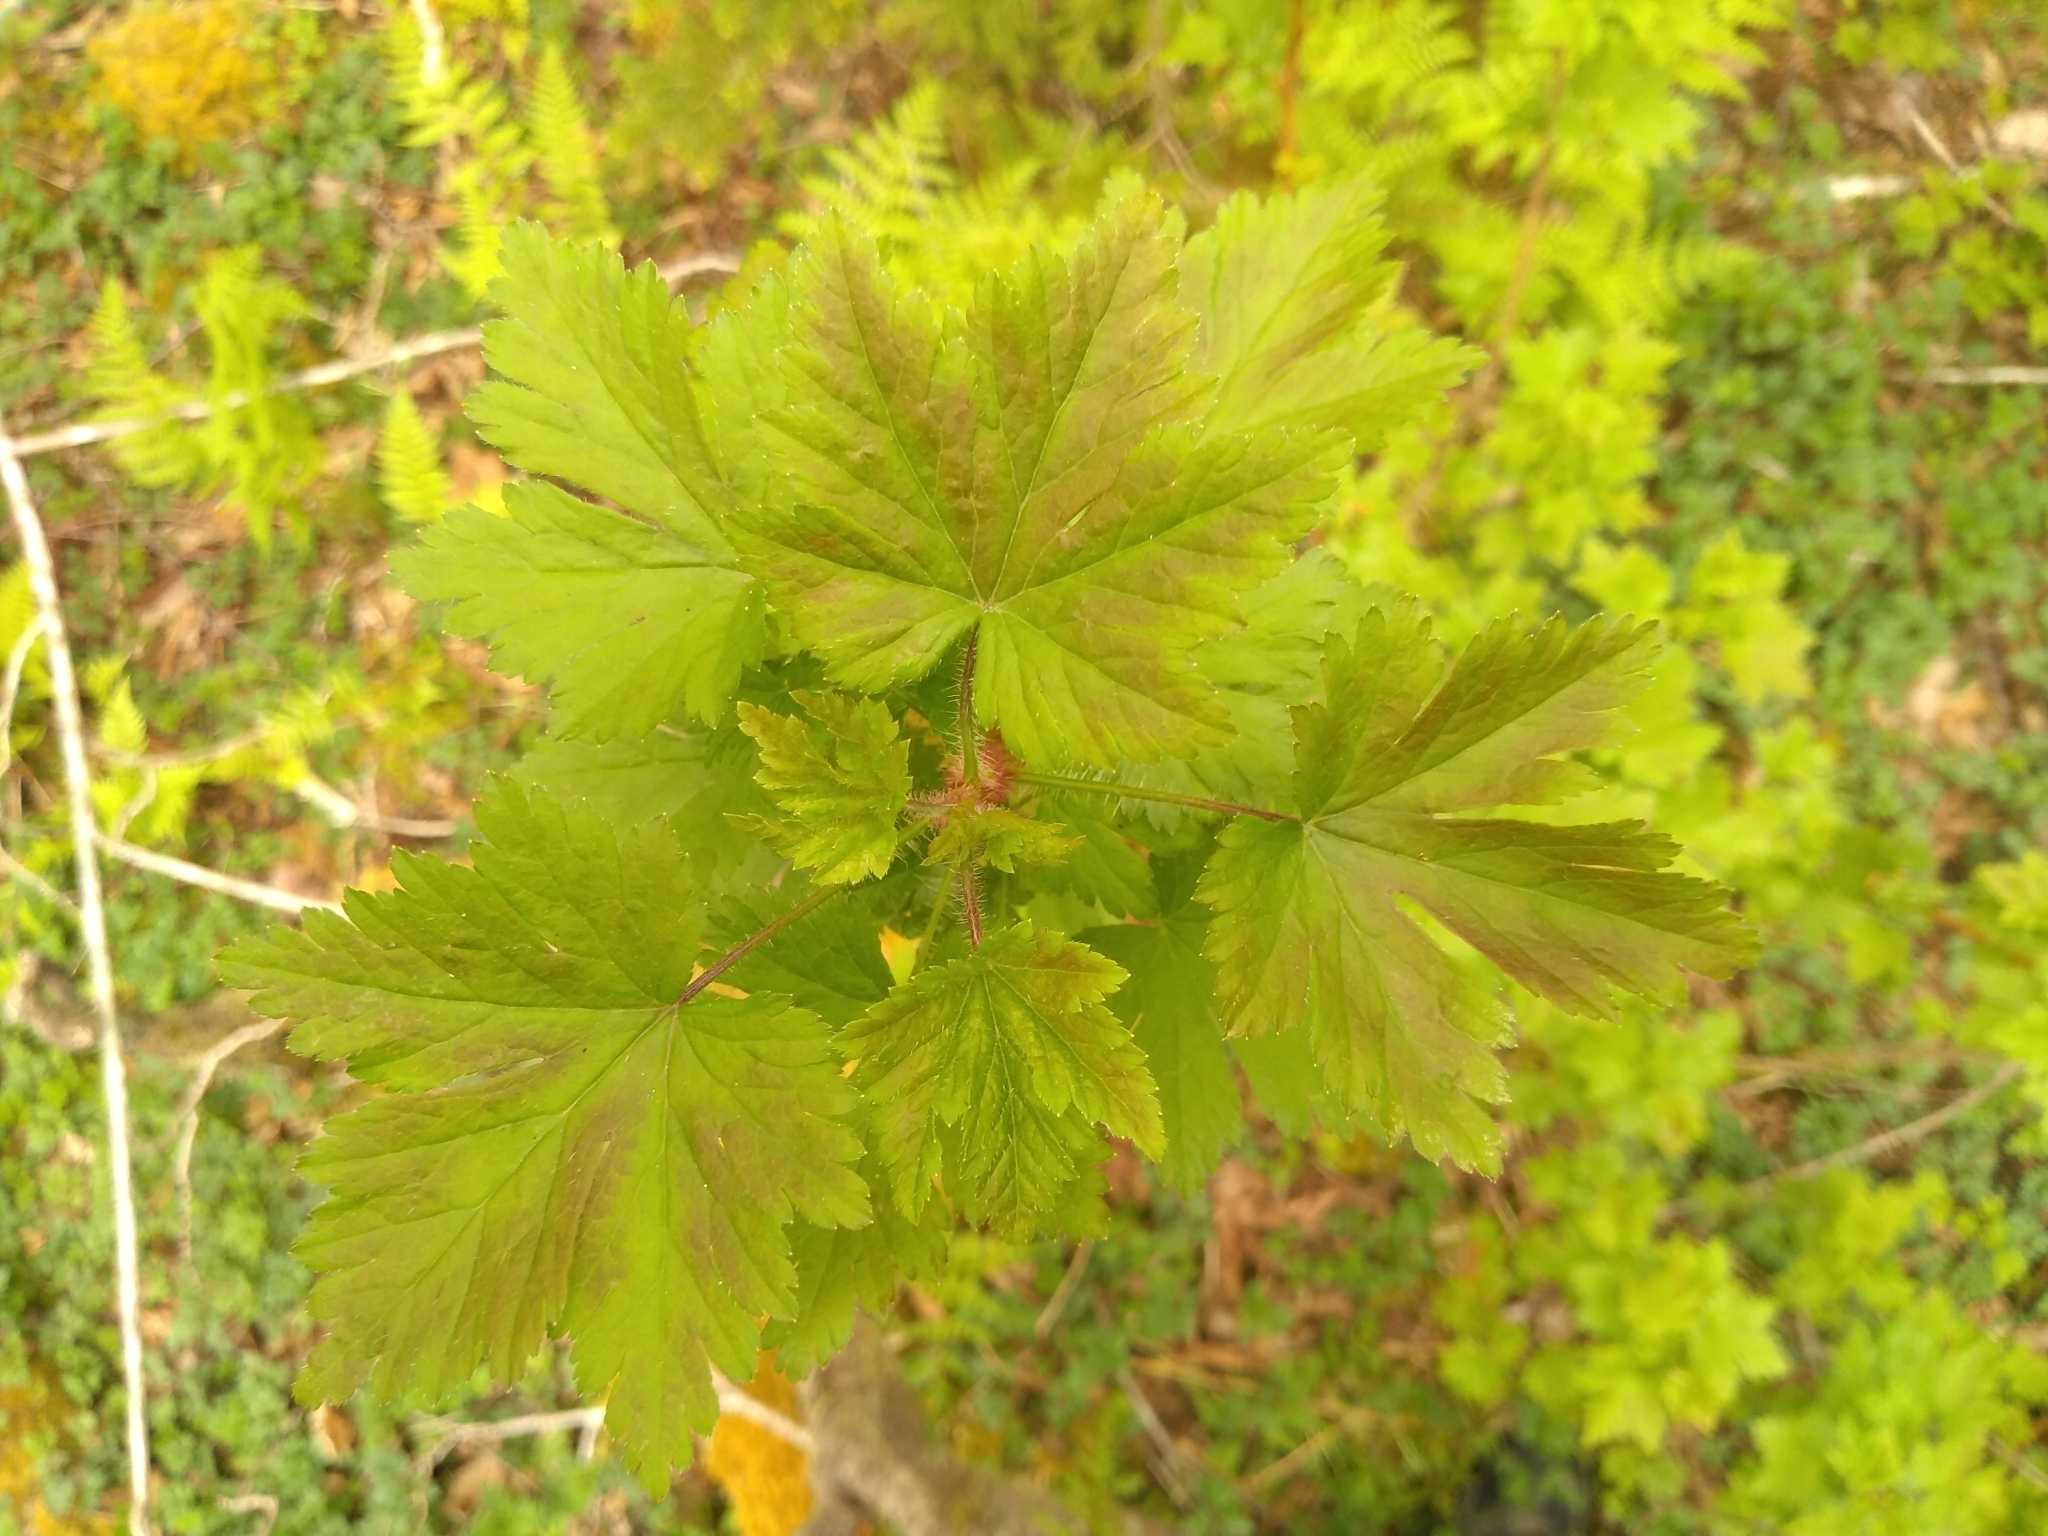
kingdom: Plantae
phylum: Tracheophyta
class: Magnoliopsida
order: Saxifragales
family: Grossulariaceae
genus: Ribes
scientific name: Ribes lacustre
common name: Black gooseberry
